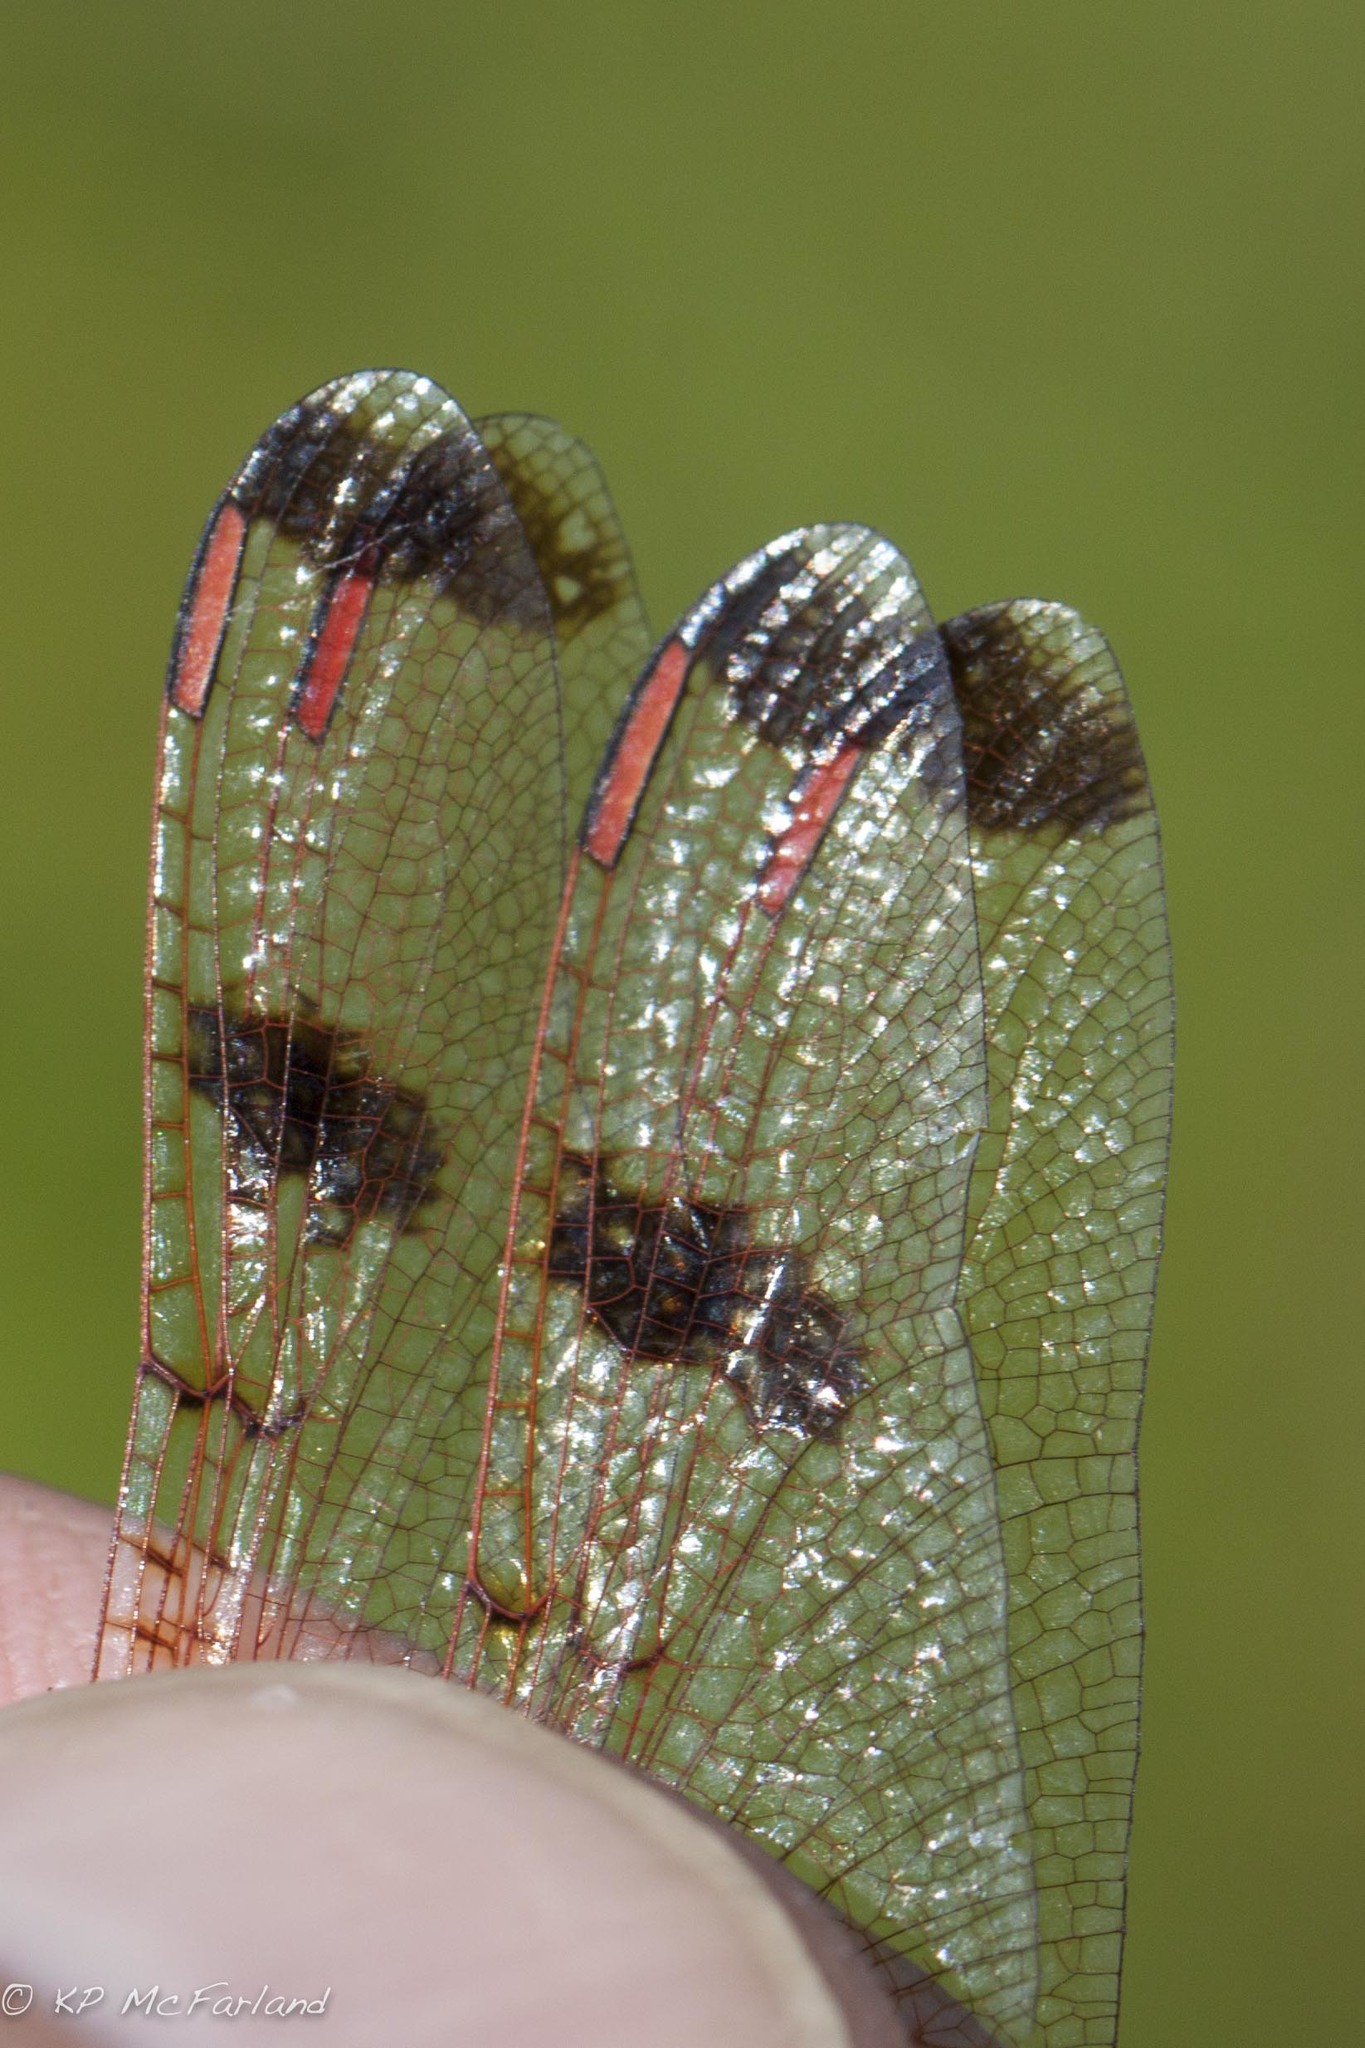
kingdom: Animalia
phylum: Arthropoda
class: Insecta
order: Odonata
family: Libellulidae
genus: Celithemis
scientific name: Celithemis elisa
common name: Calico pennant
